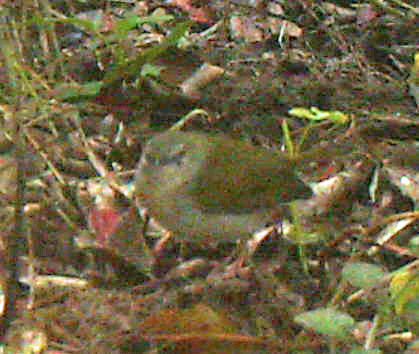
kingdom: Animalia
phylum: Chordata
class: Aves
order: Passeriformes
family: Cisticolidae
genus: Camaroptera
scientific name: Camaroptera brachyura
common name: Green-backed camaroptera
